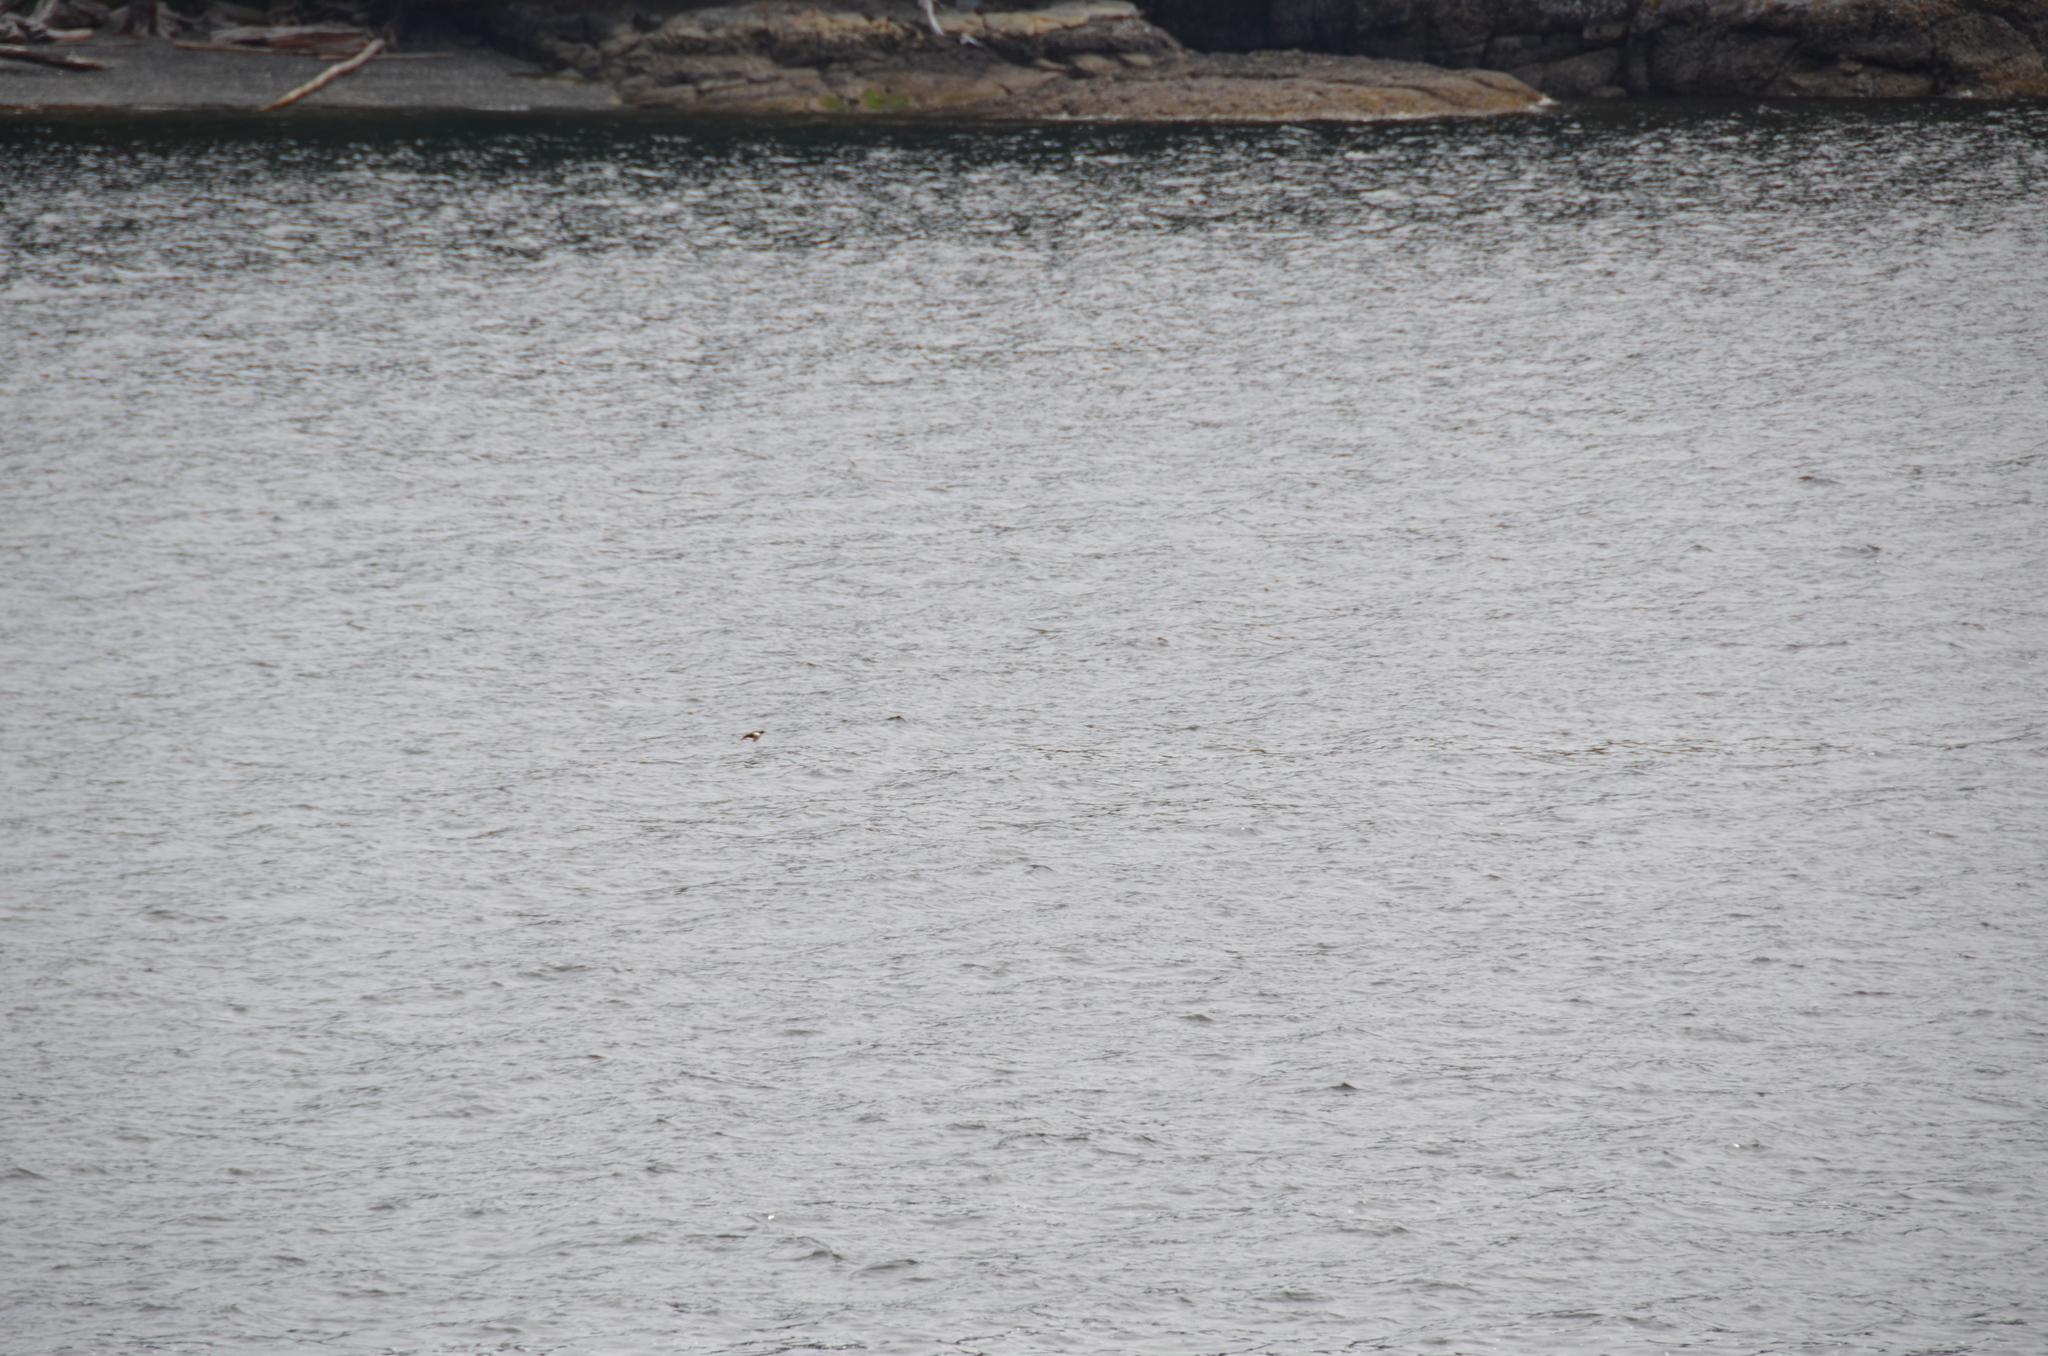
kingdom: Animalia
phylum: Chordata
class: Aves
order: Charadriiformes
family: Alcidae
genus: Cepphus
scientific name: Cepphus columba
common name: Pigeon guillemot
